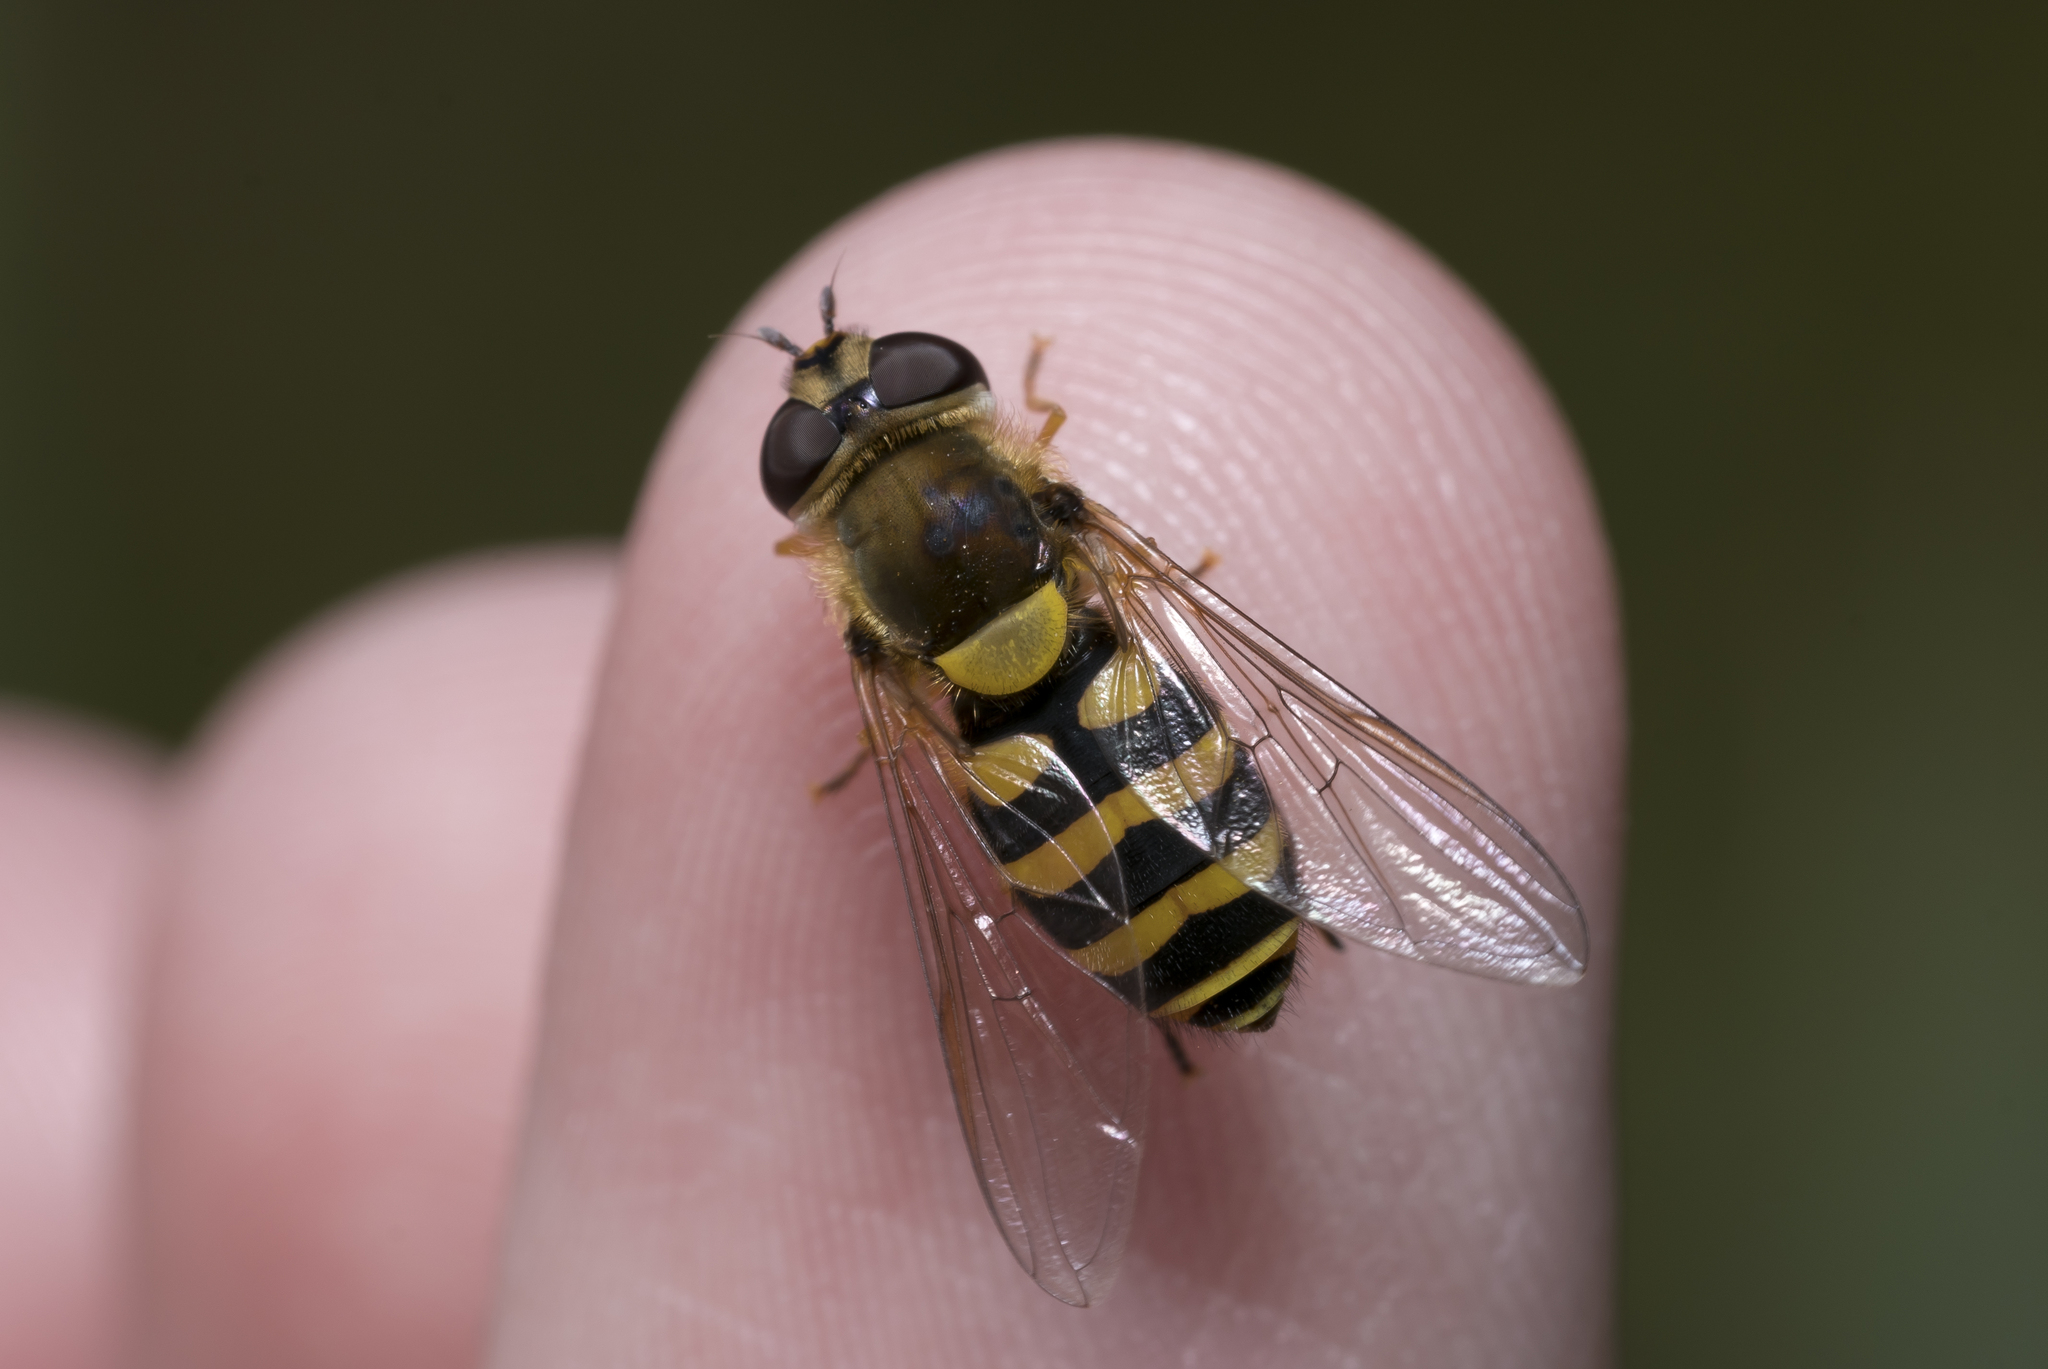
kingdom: Animalia
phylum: Arthropoda
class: Insecta
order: Diptera
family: Syrphidae
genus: Syrphus
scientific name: Syrphus vitripennis
